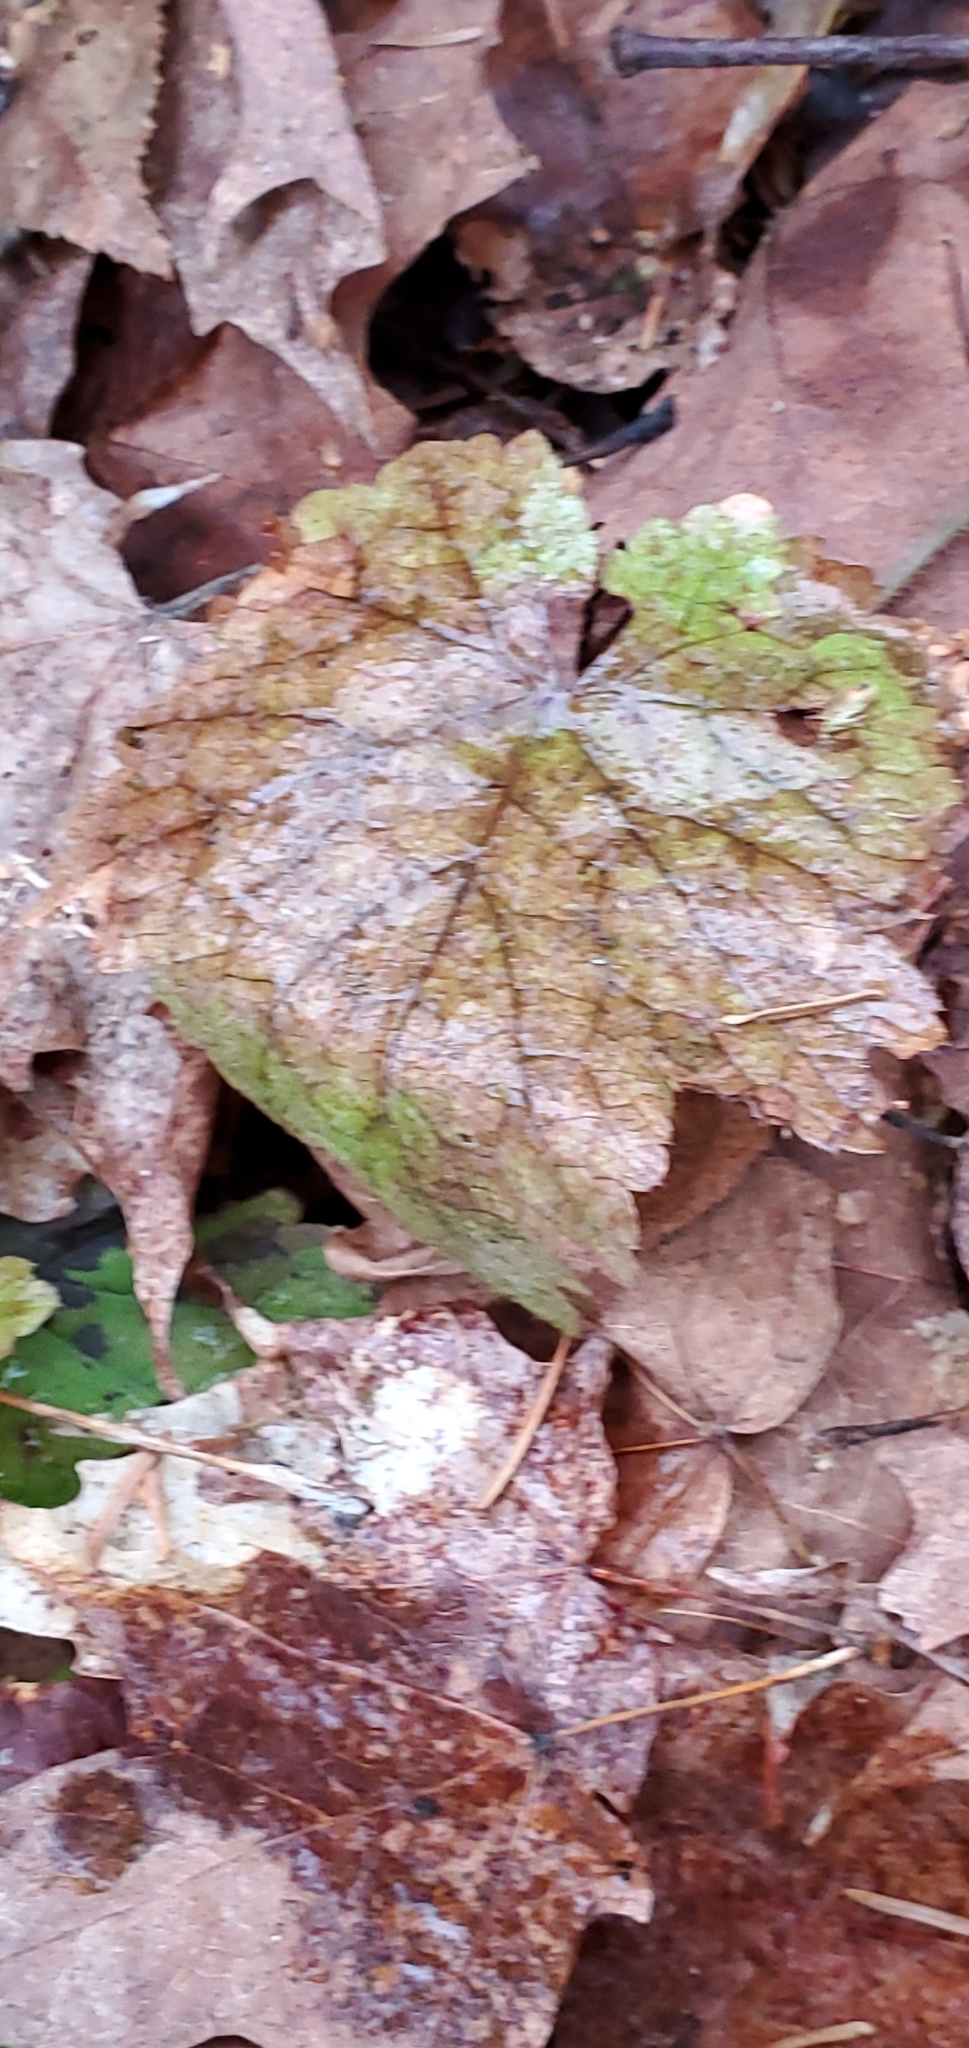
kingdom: Plantae
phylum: Tracheophyta
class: Magnoliopsida
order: Saxifragales
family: Saxifragaceae
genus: Tiarella
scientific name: Tiarella stolonifera
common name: Stoloniferous foamflower
